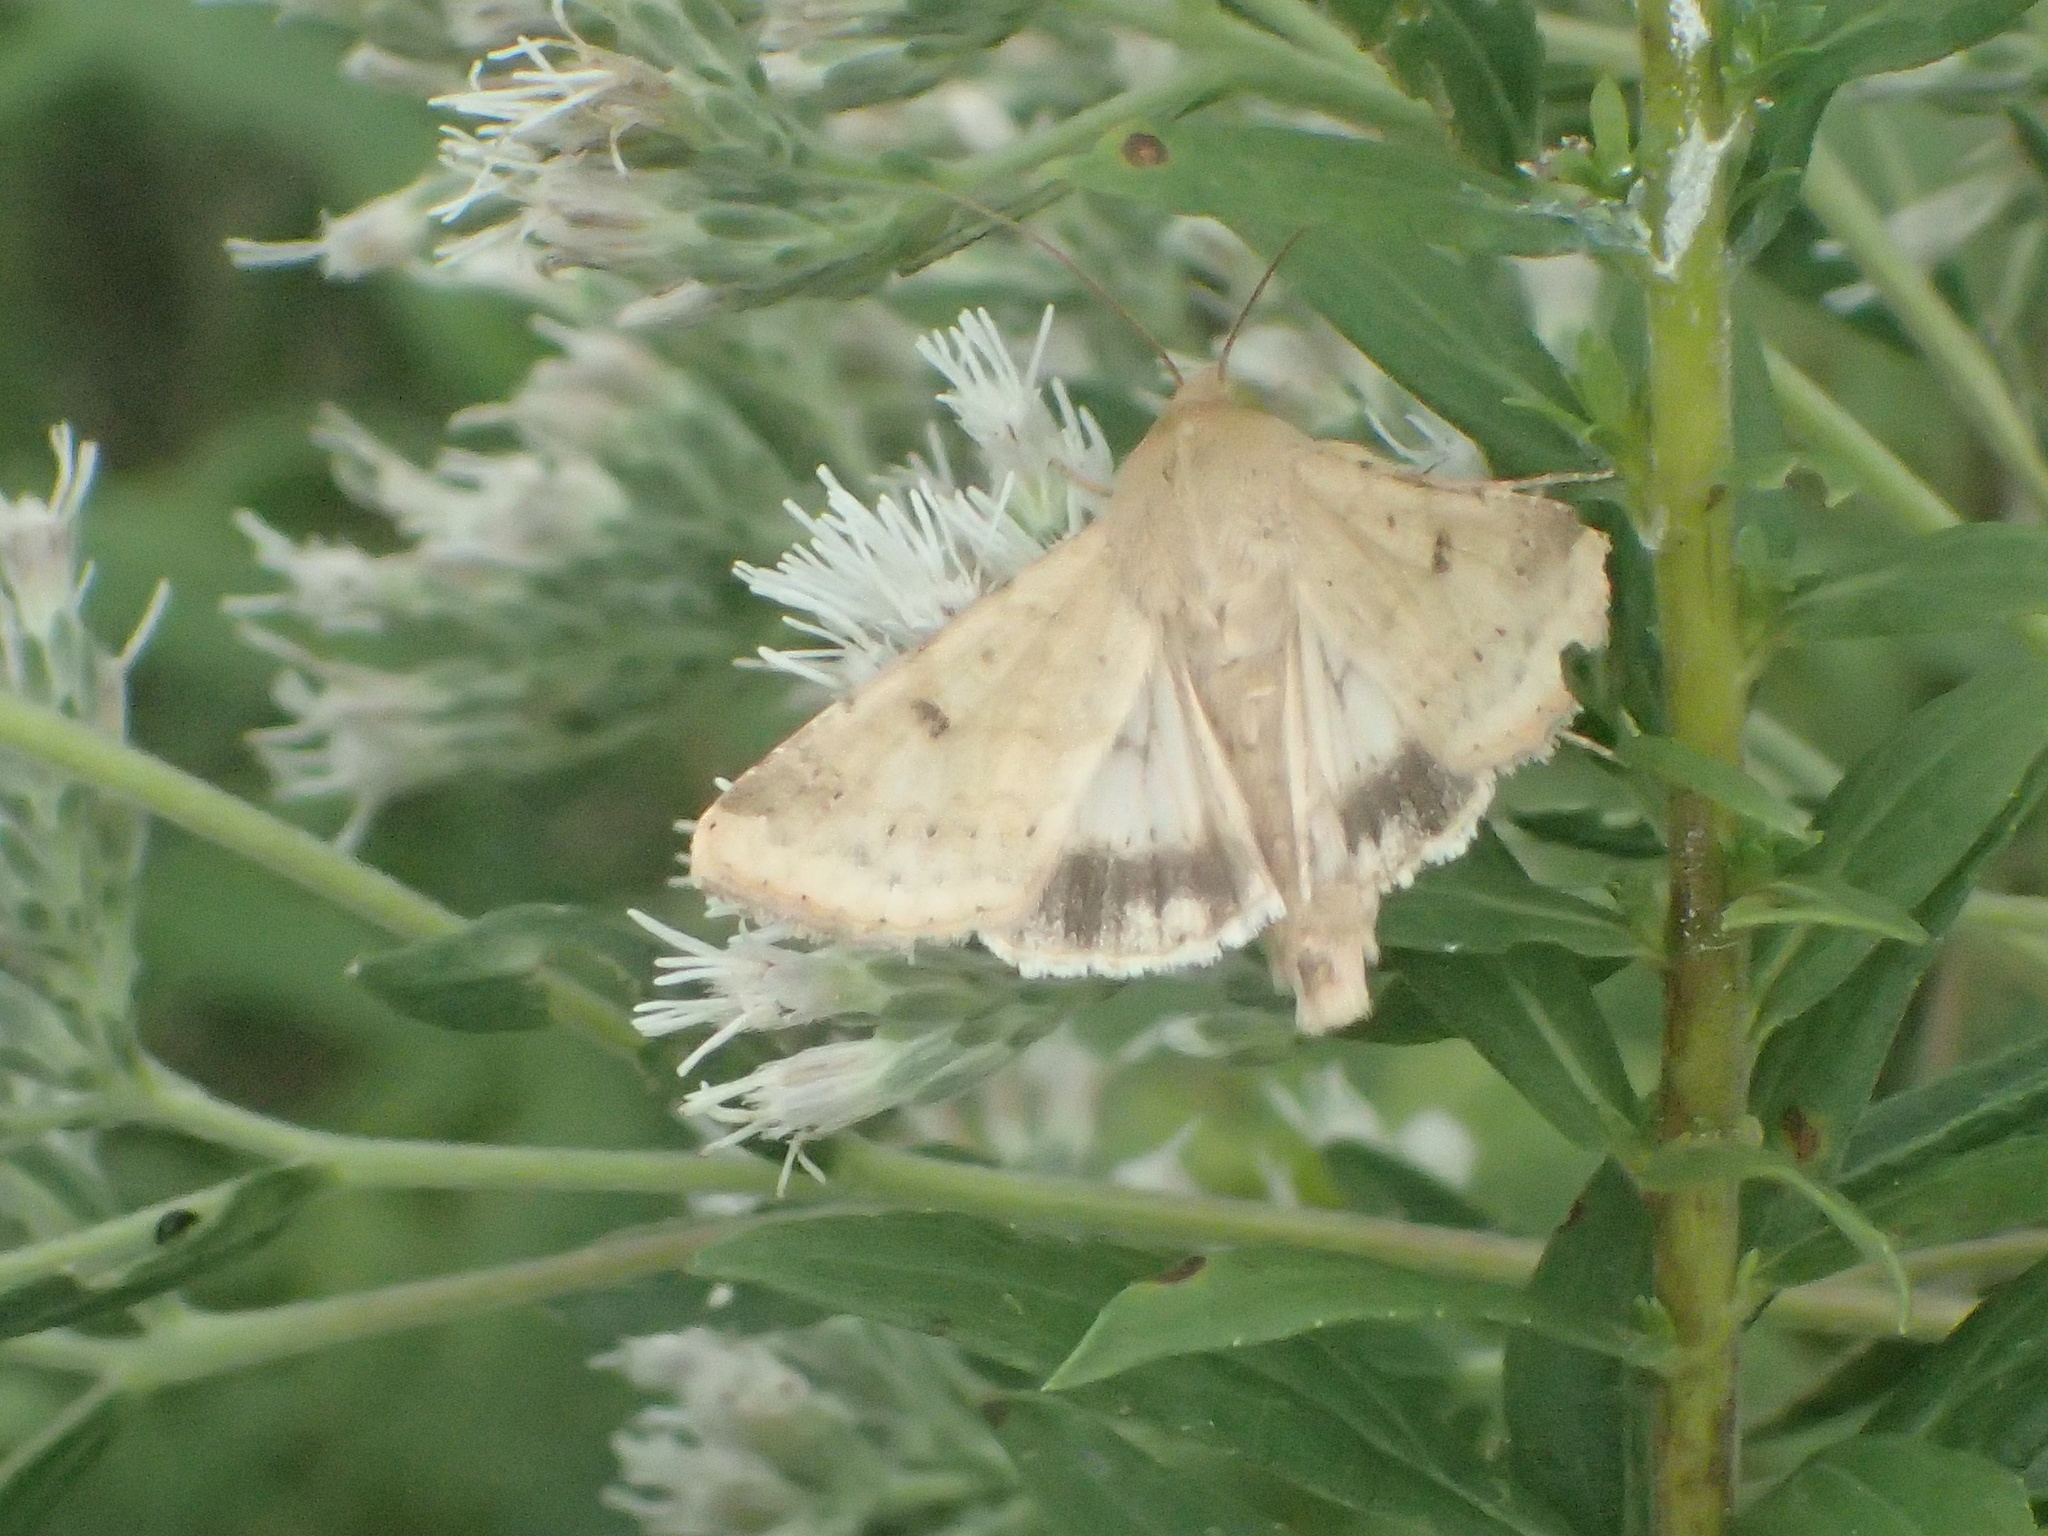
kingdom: Animalia
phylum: Arthropoda
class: Insecta
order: Lepidoptera
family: Noctuidae
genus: Helicoverpa
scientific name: Helicoverpa zea
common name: Bollworm
